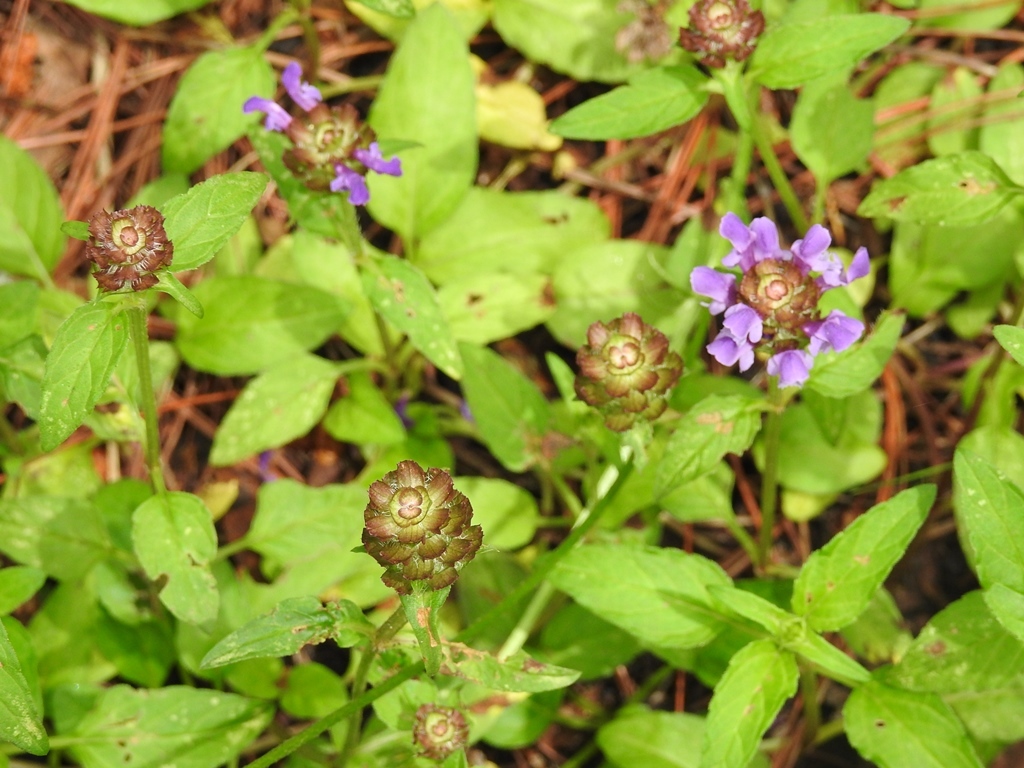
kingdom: Plantae
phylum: Tracheophyta
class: Magnoliopsida
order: Lamiales
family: Lamiaceae
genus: Prunella
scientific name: Prunella vulgaris
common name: Heal-all
